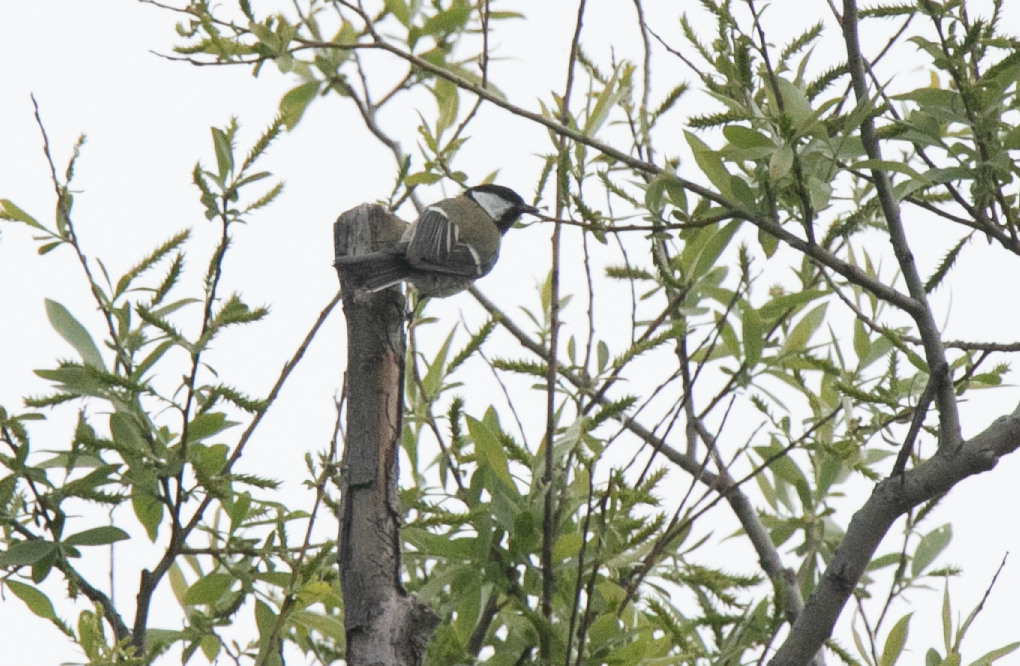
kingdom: Animalia
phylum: Chordata
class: Aves
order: Passeriformes
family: Paridae
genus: Parus
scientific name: Parus major
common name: Great tit
